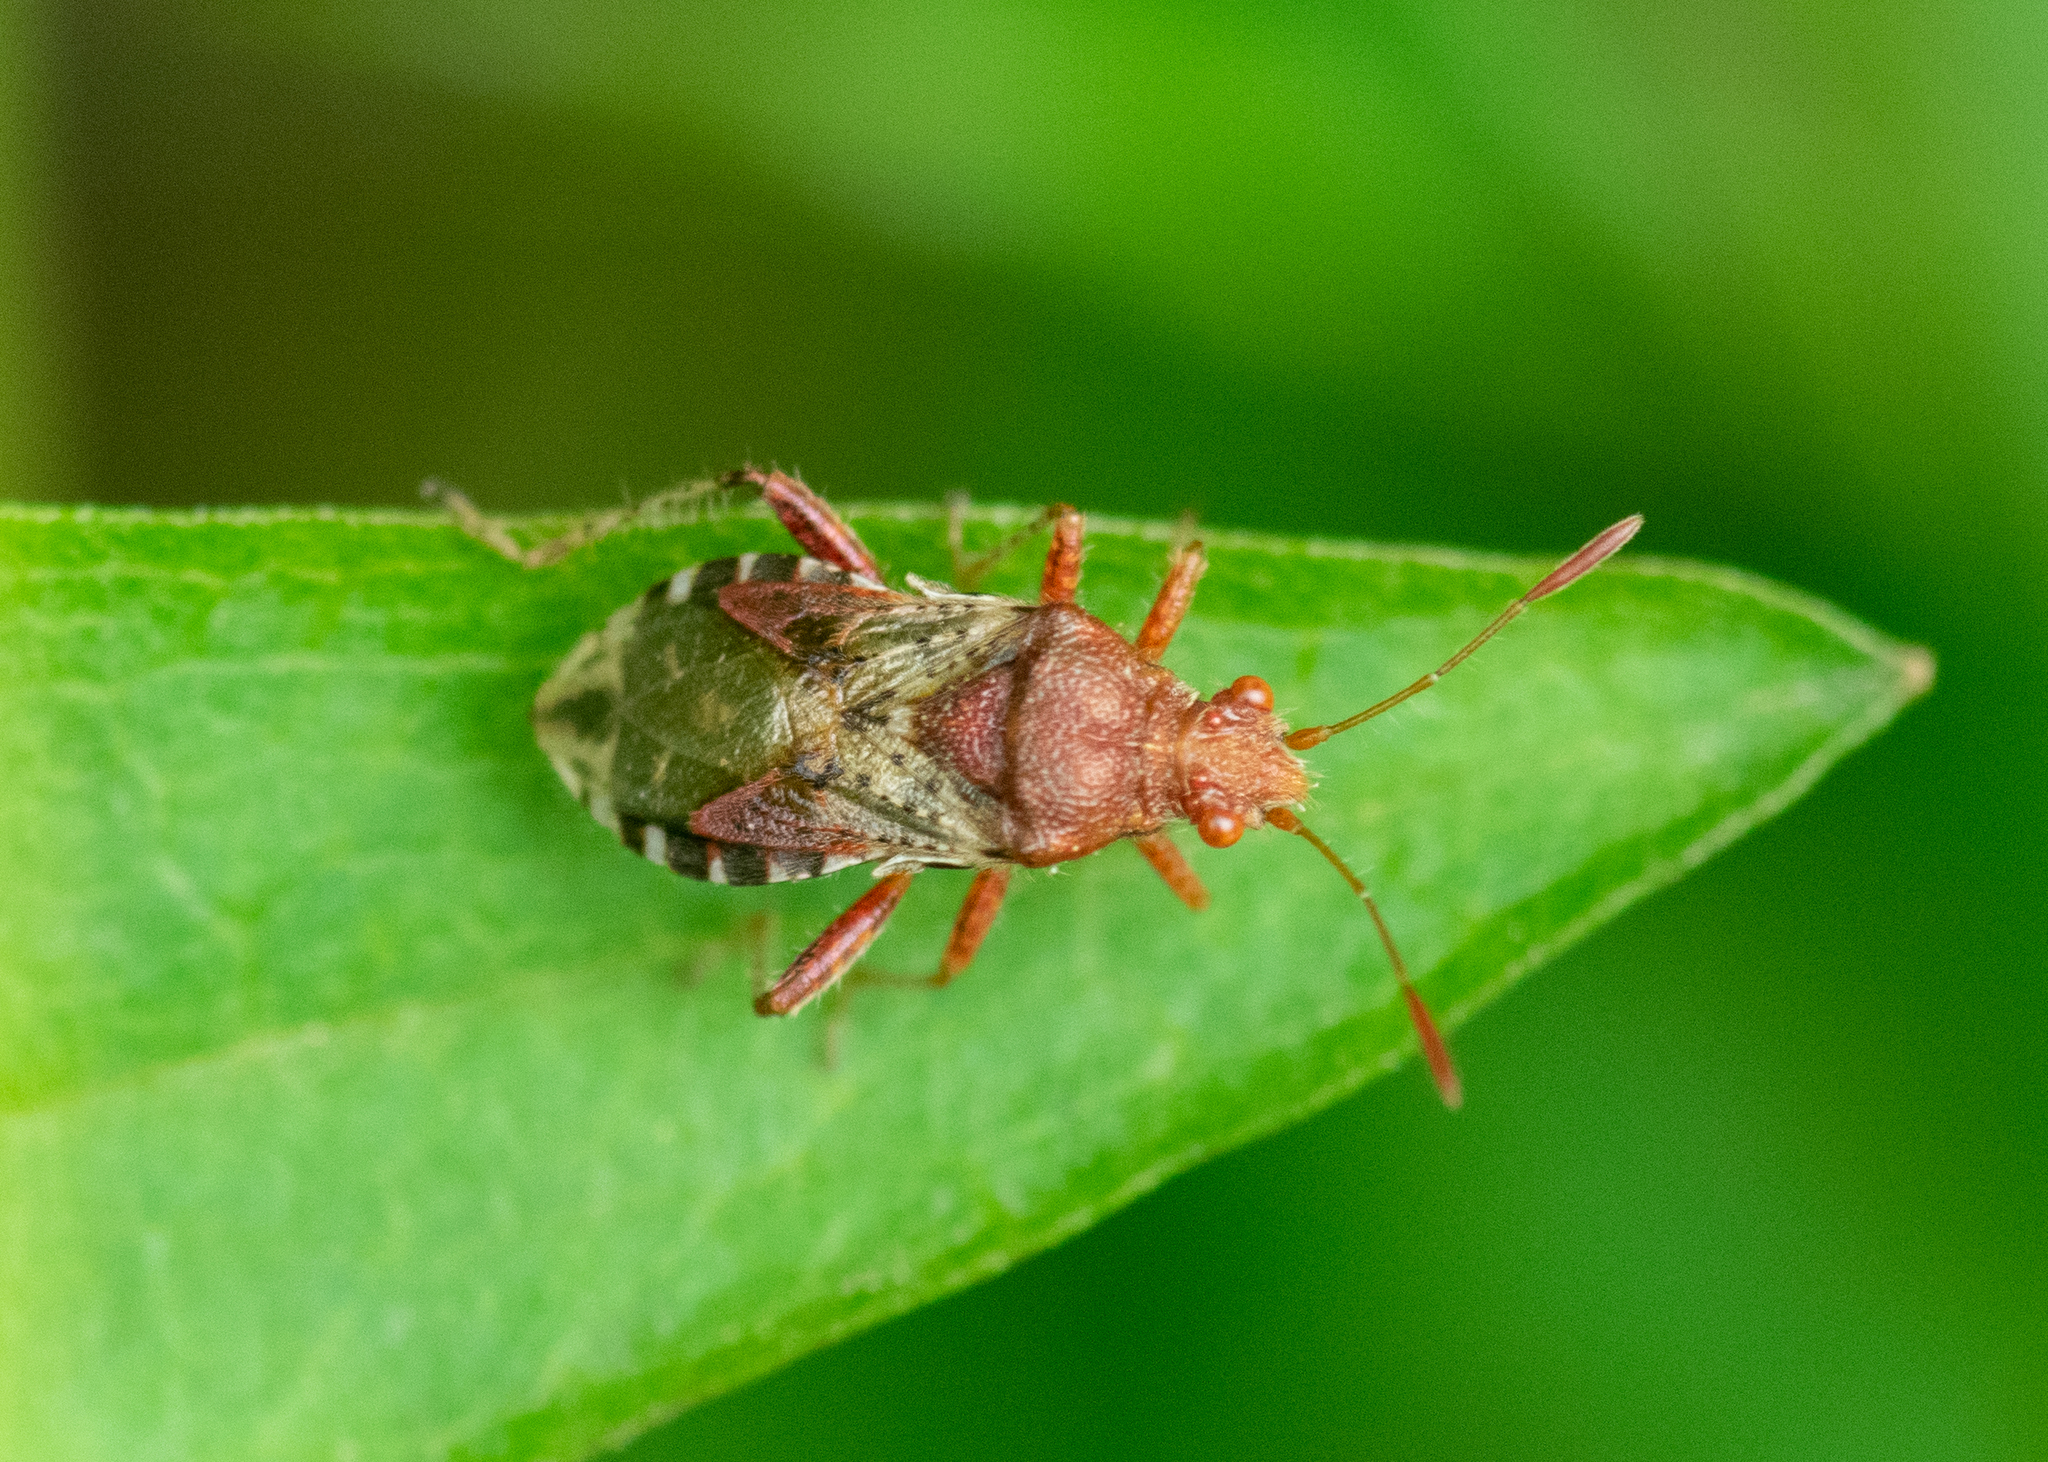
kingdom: Animalia
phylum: Arthropoda
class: Insecta
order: Hemiptera
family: Rhopalidae
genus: Rhopalus
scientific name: Rhopalus subrufus
